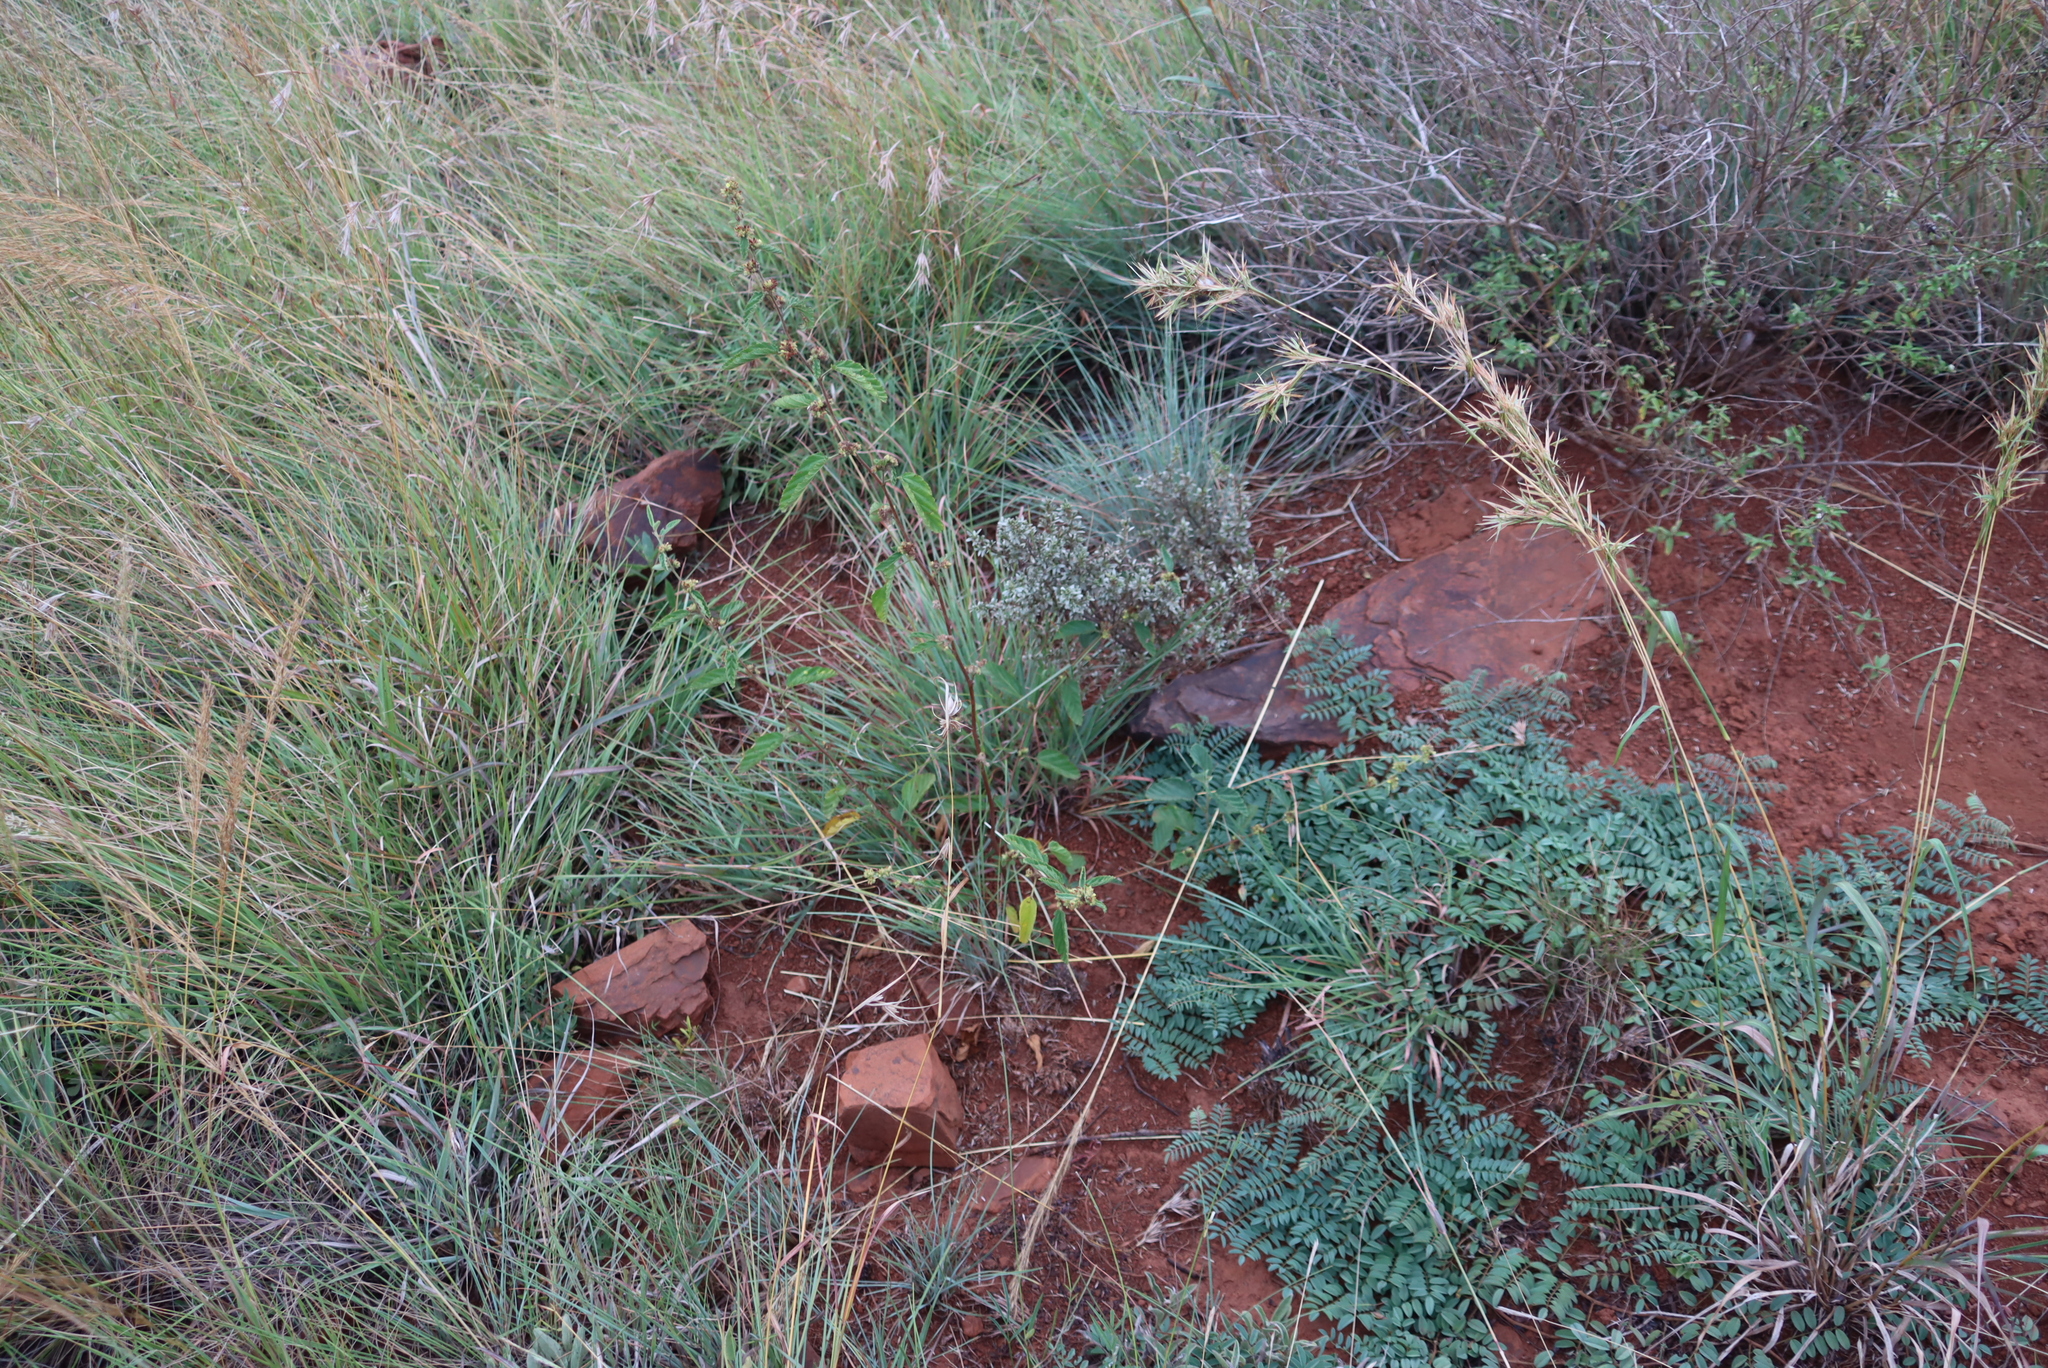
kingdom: Plantae
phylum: Tracheophyta
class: Magnoliopsida
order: Malvales
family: Malvaceae
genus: Waltheria
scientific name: Waltheria indica
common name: Leather-coat
